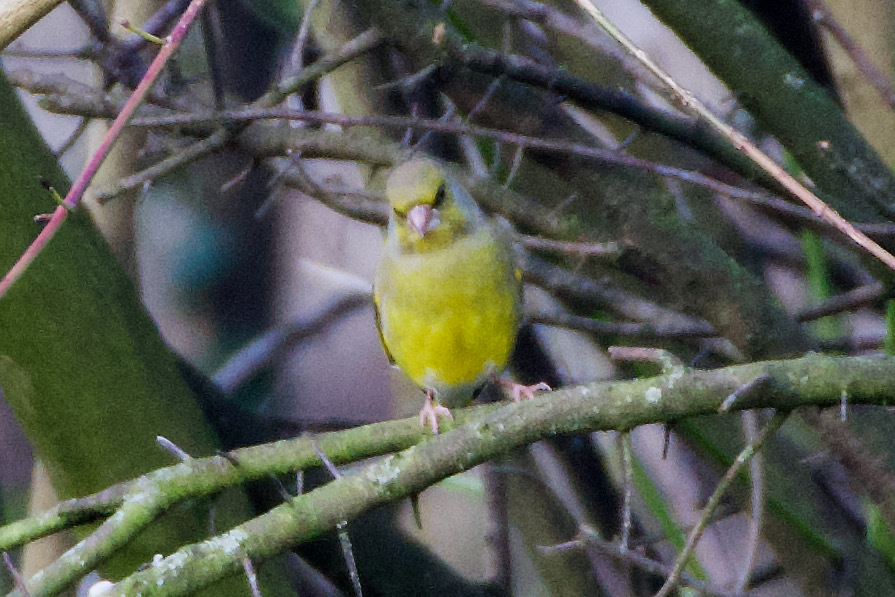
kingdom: Plantae
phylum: Tracheophyta
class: Liliopsida
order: Poales
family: Poaceae
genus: Chloris
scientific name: Chloris chloris
